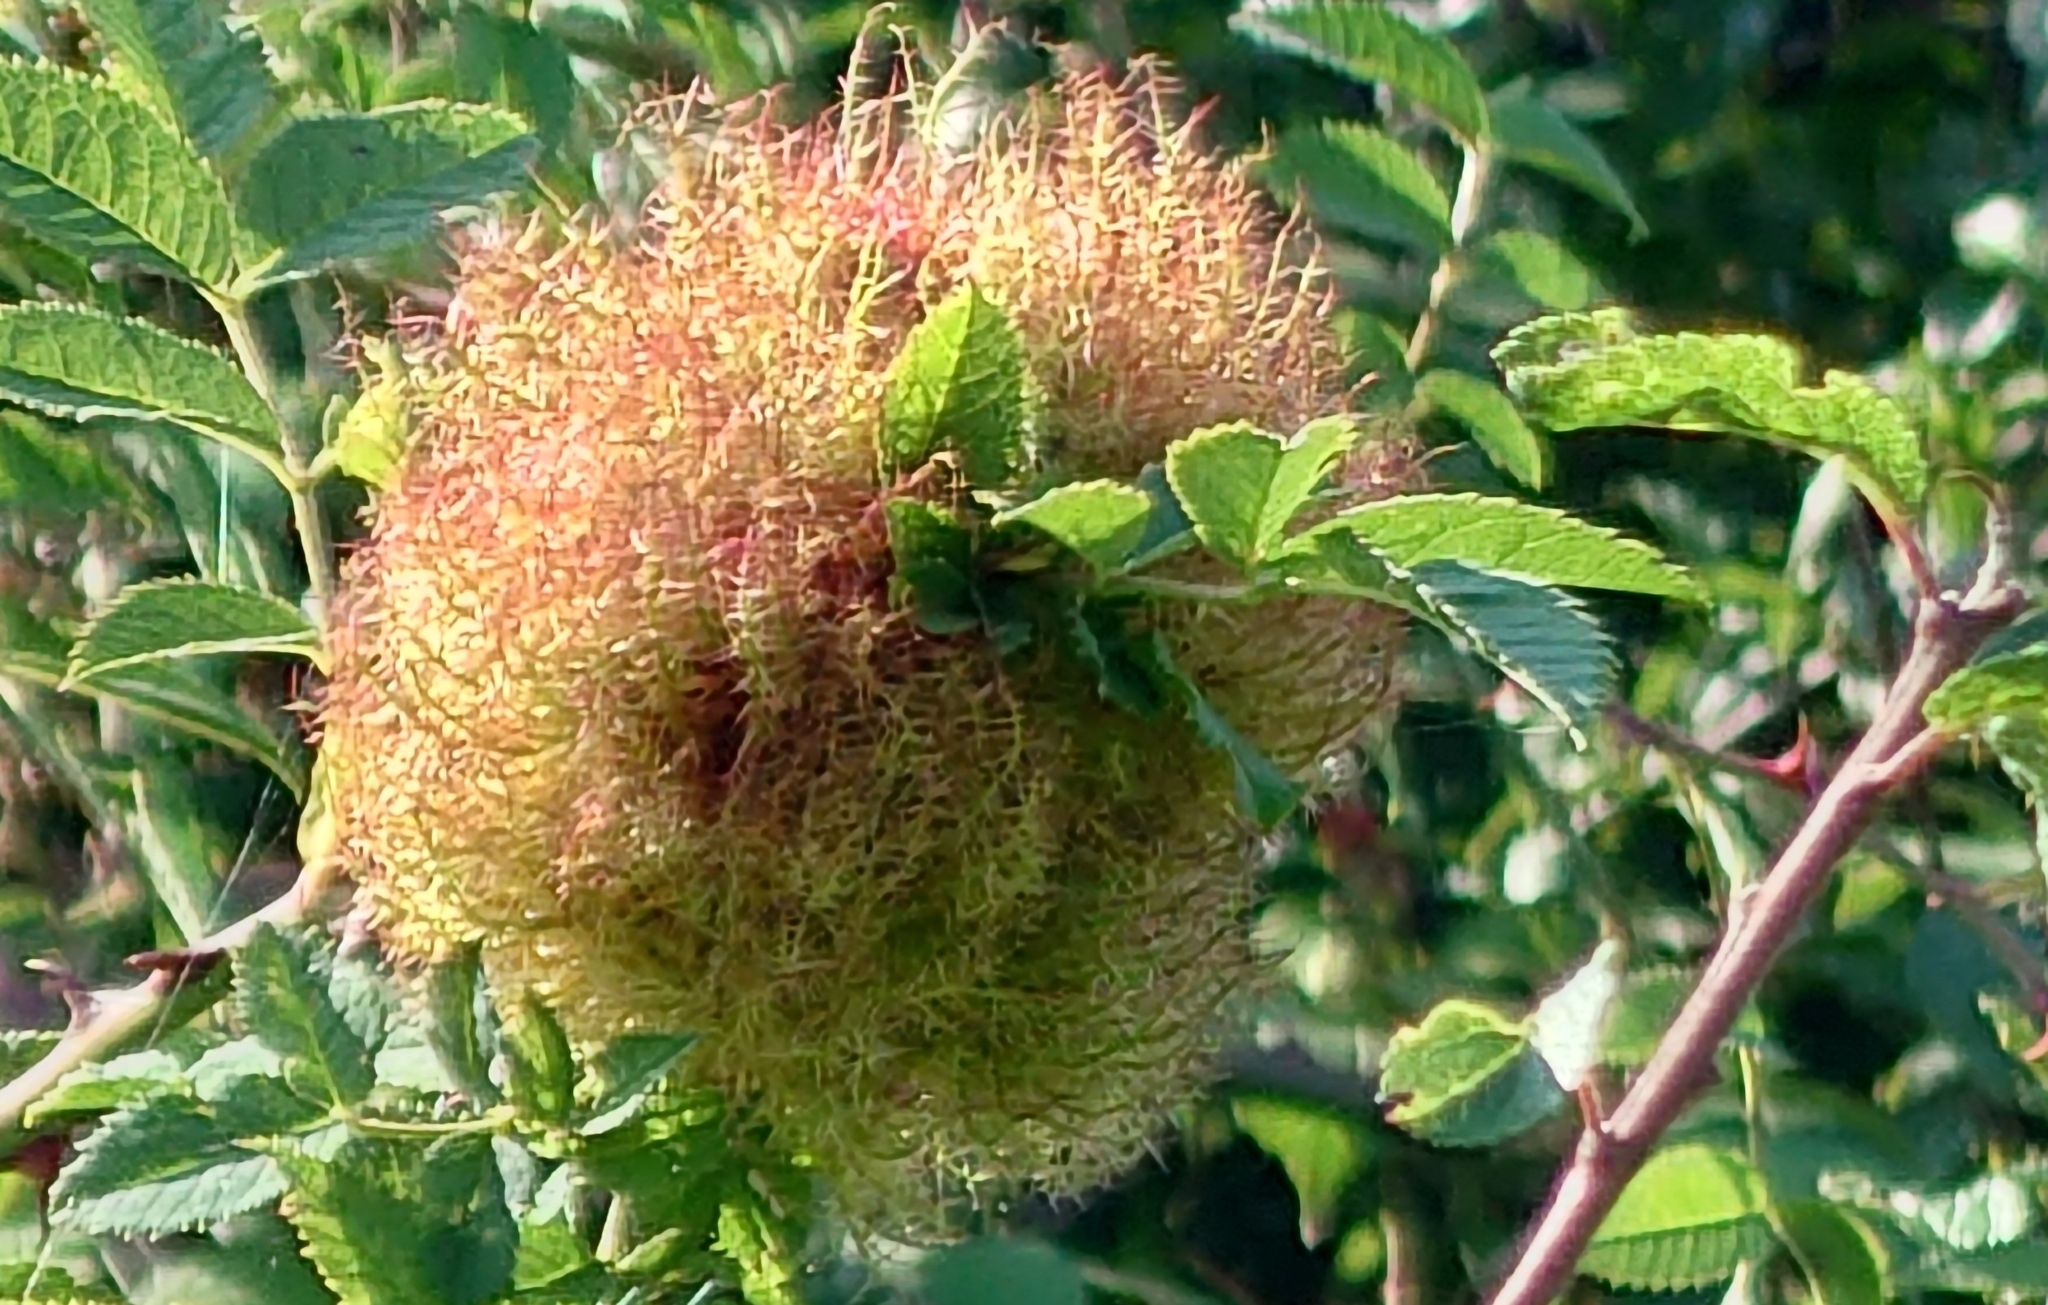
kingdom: Animalia
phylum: Arthropoda
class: Insecta
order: Hymenoptera
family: Cynipidae
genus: Diplolepis
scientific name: Diplolepis rosae
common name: Bedeguar gall
